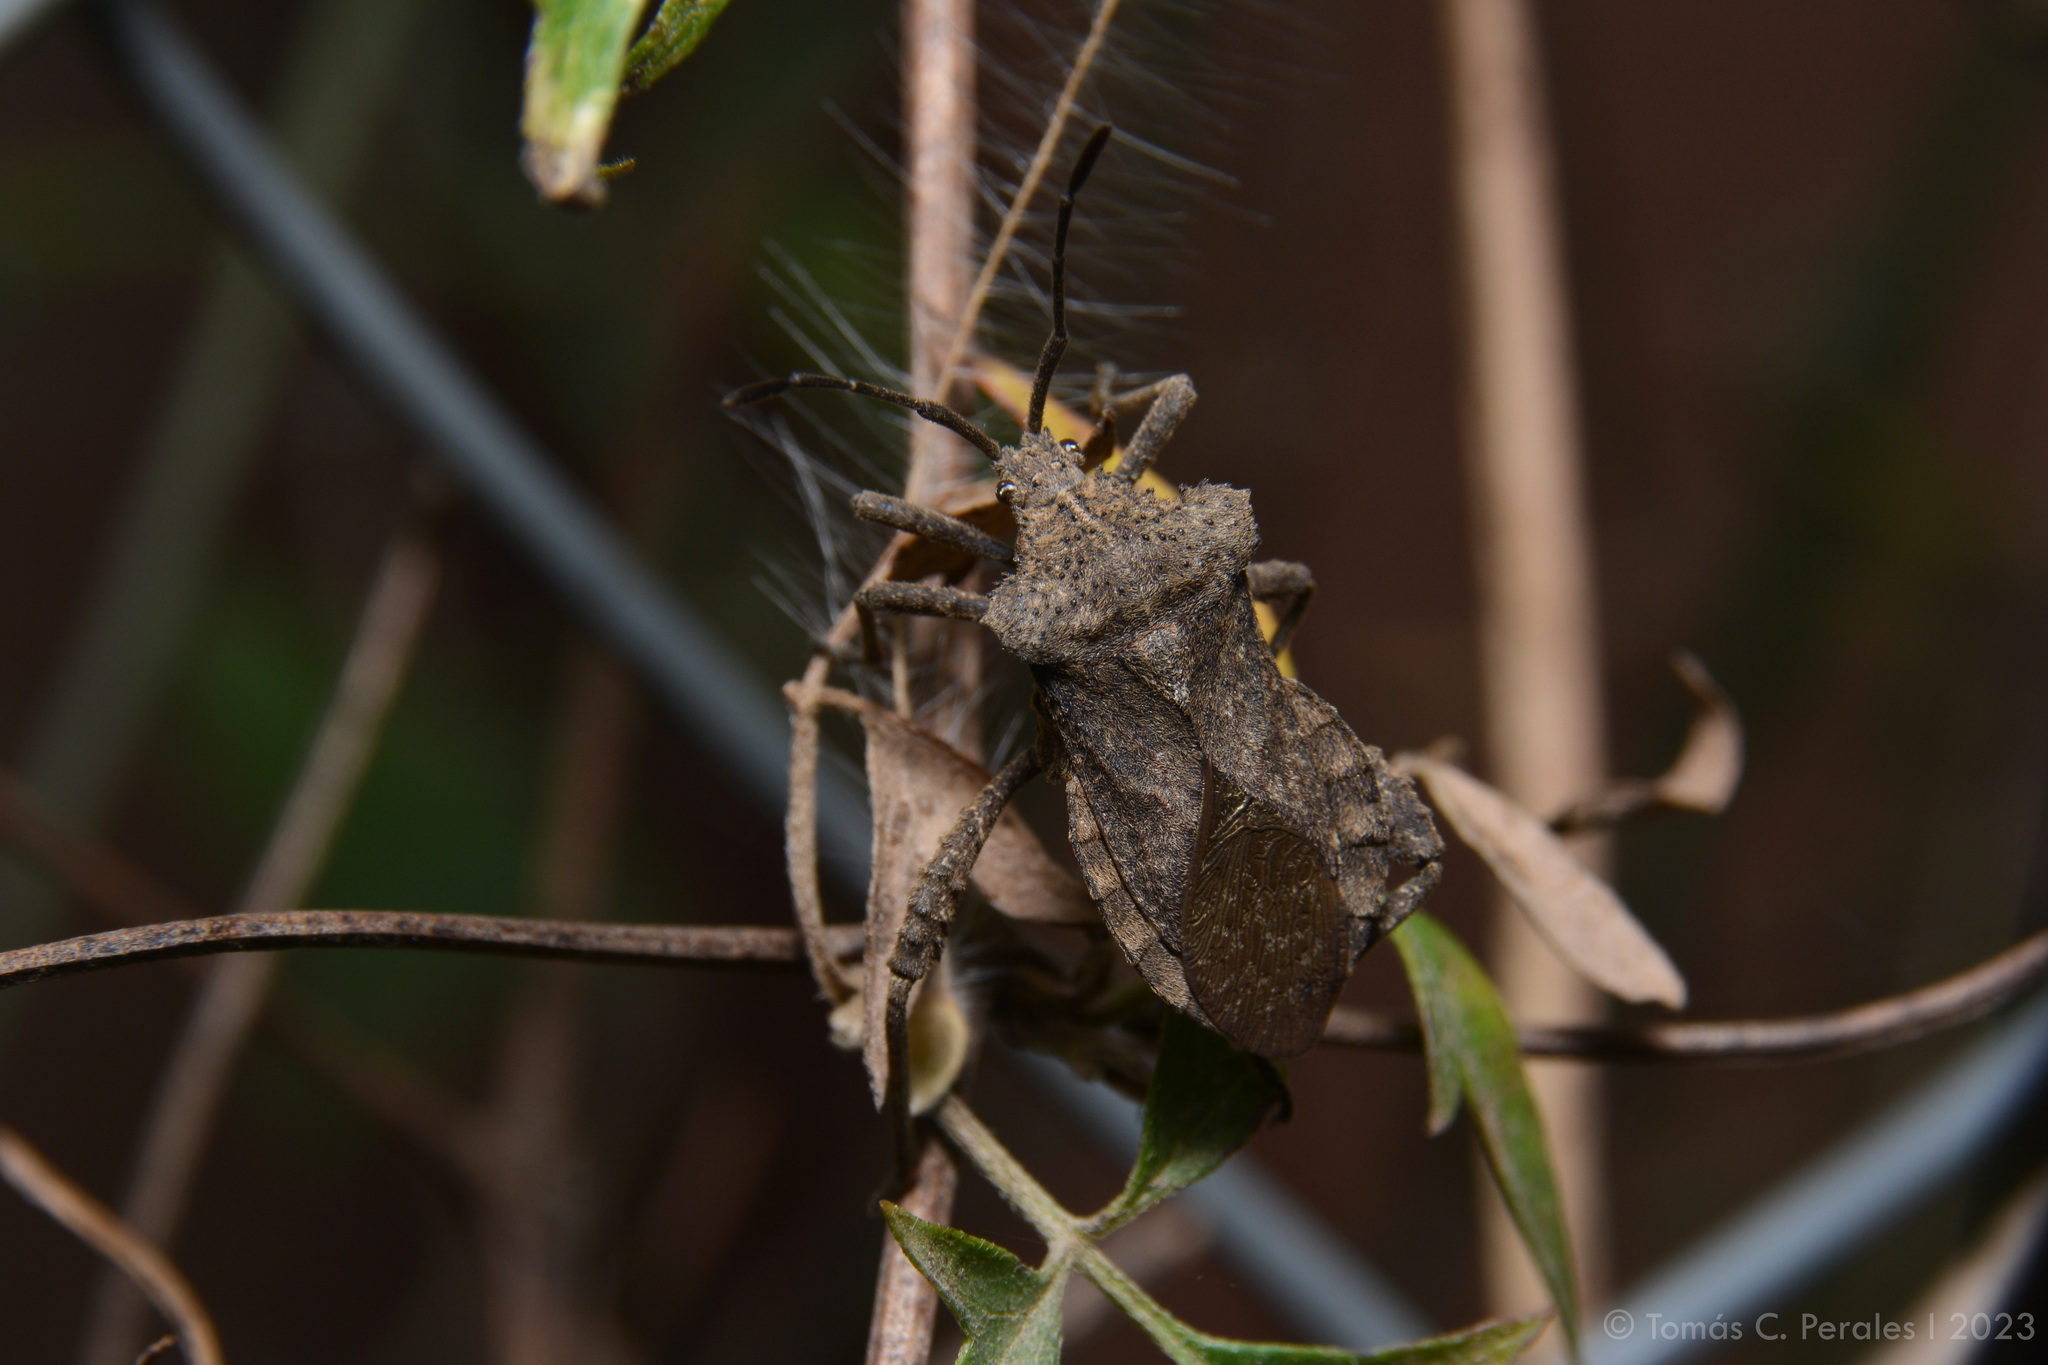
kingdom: Animalia
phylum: Arthropoda
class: Insecta
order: Hemiptera
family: Coreidae
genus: Camptischium
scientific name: Camptischium clavipes
